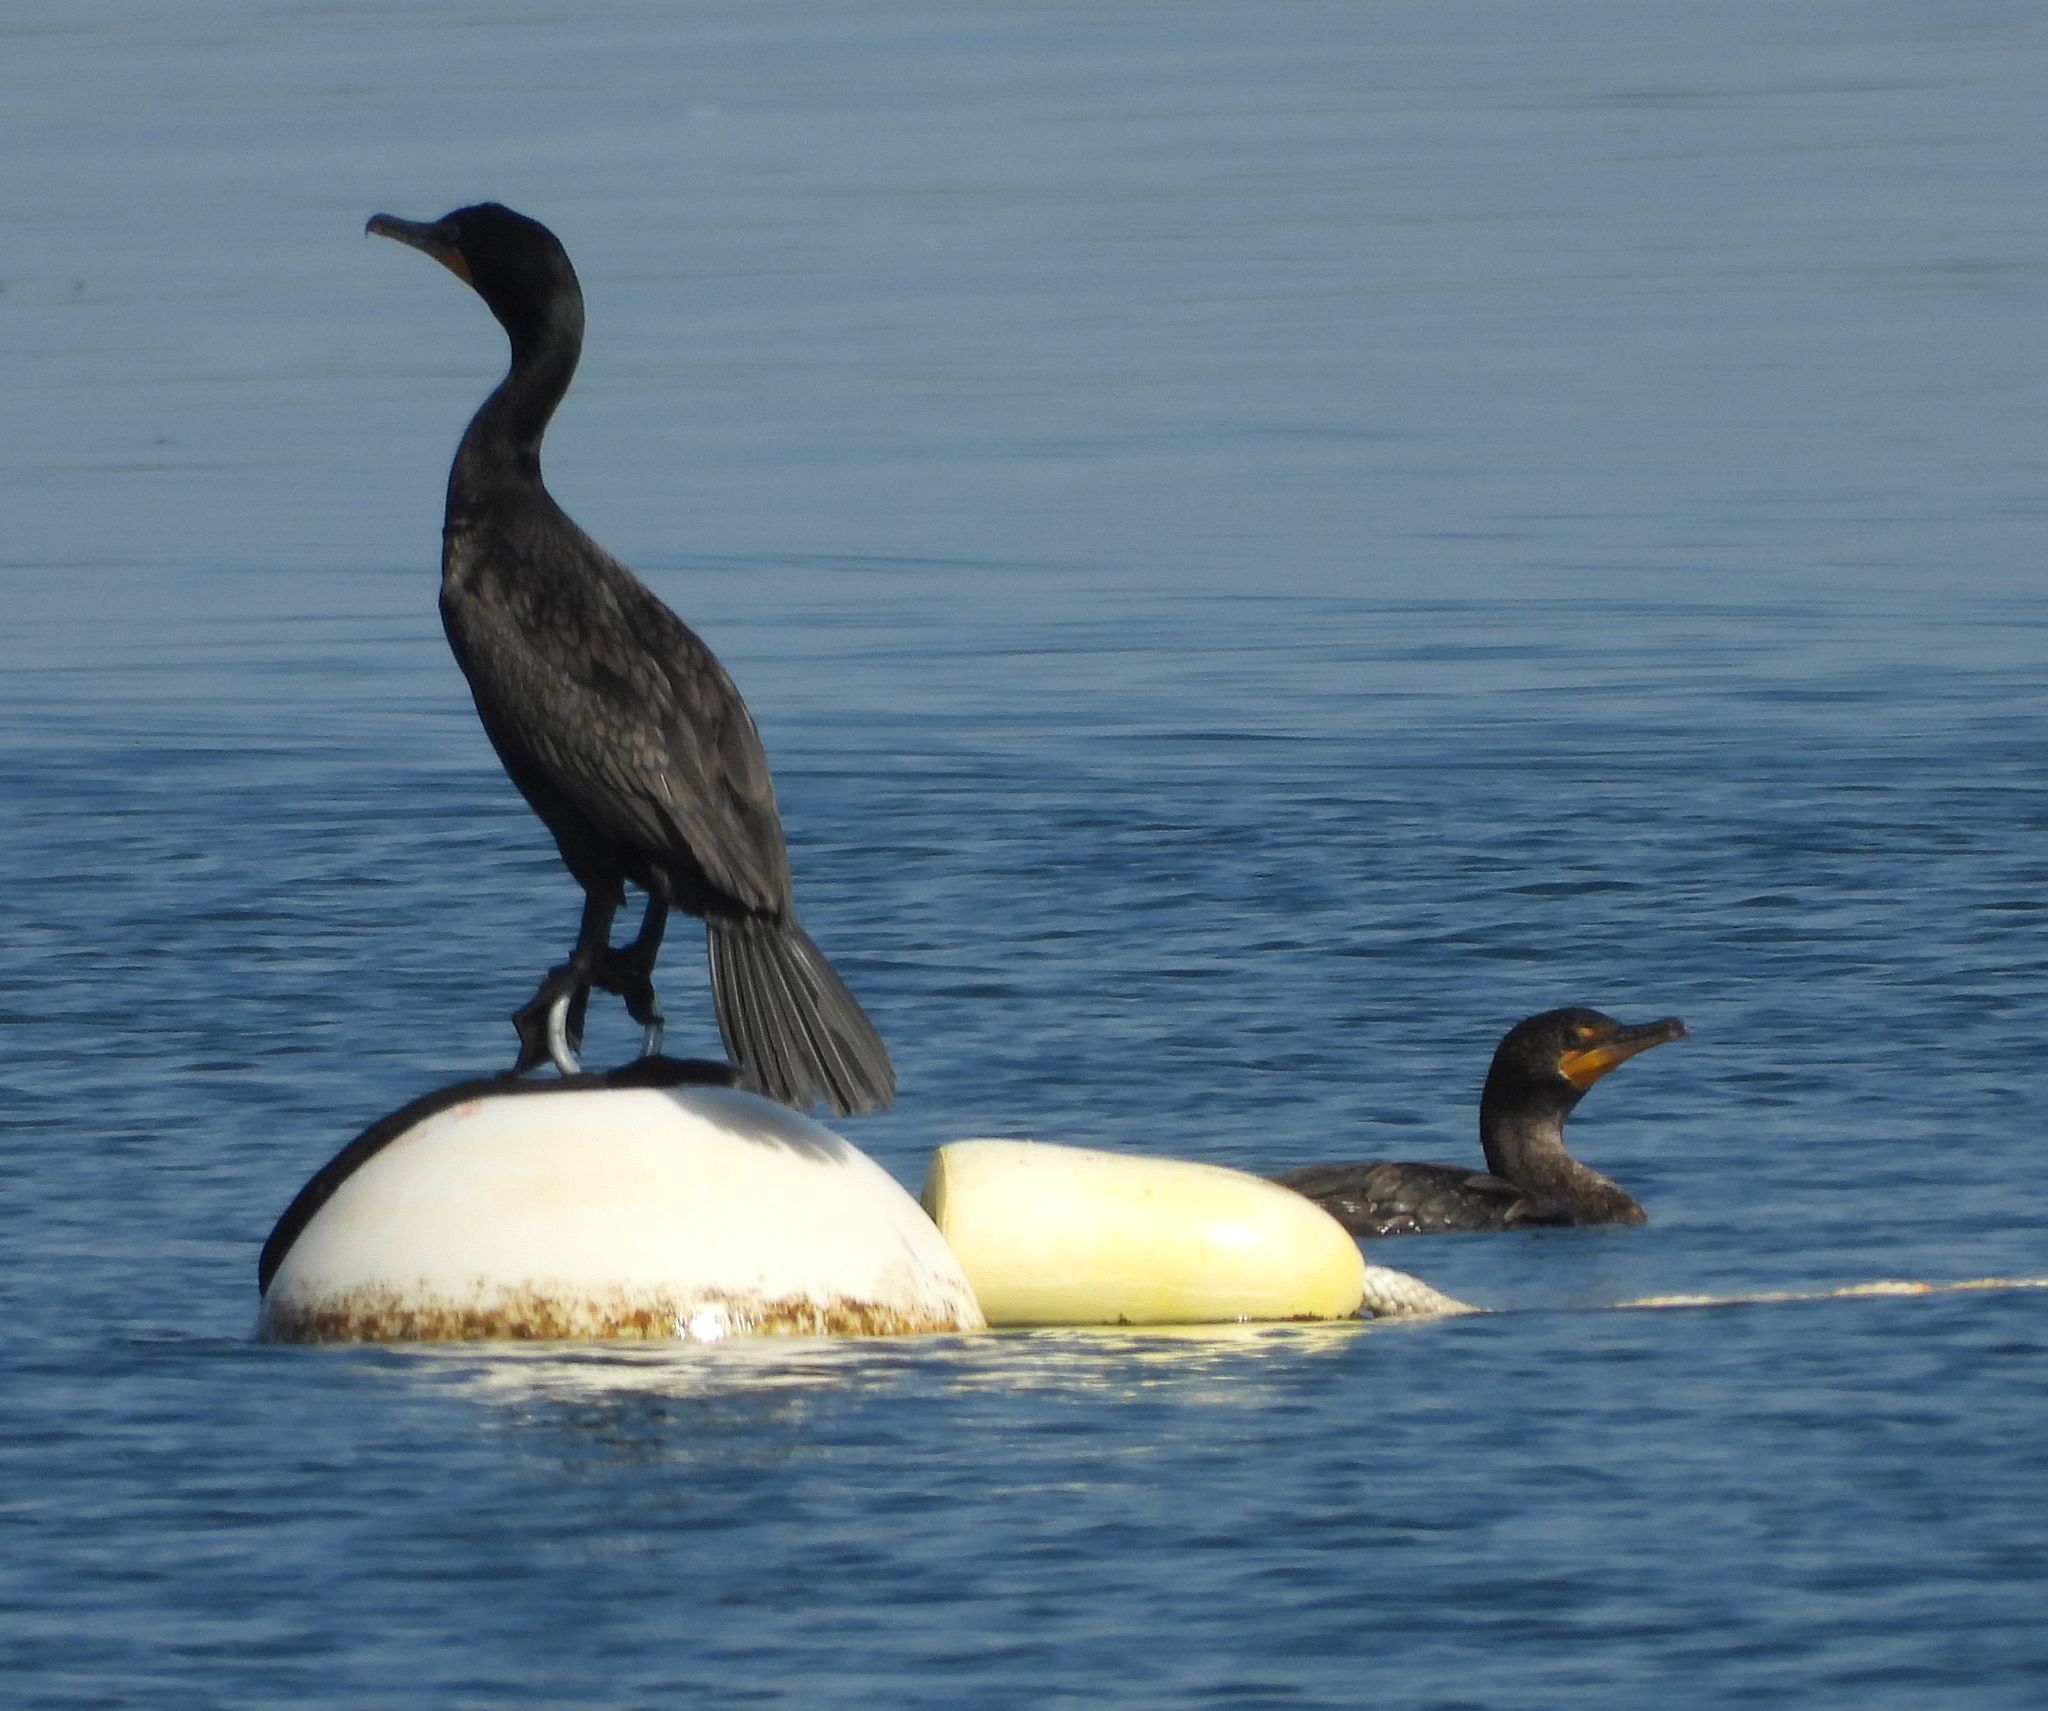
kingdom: Animalia
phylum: Chordata
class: Aves
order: Suliformes
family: Phalacrocoracidae
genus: Phalacrocorax
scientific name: Phalacrocorax auritus
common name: Double-crested cormorant
